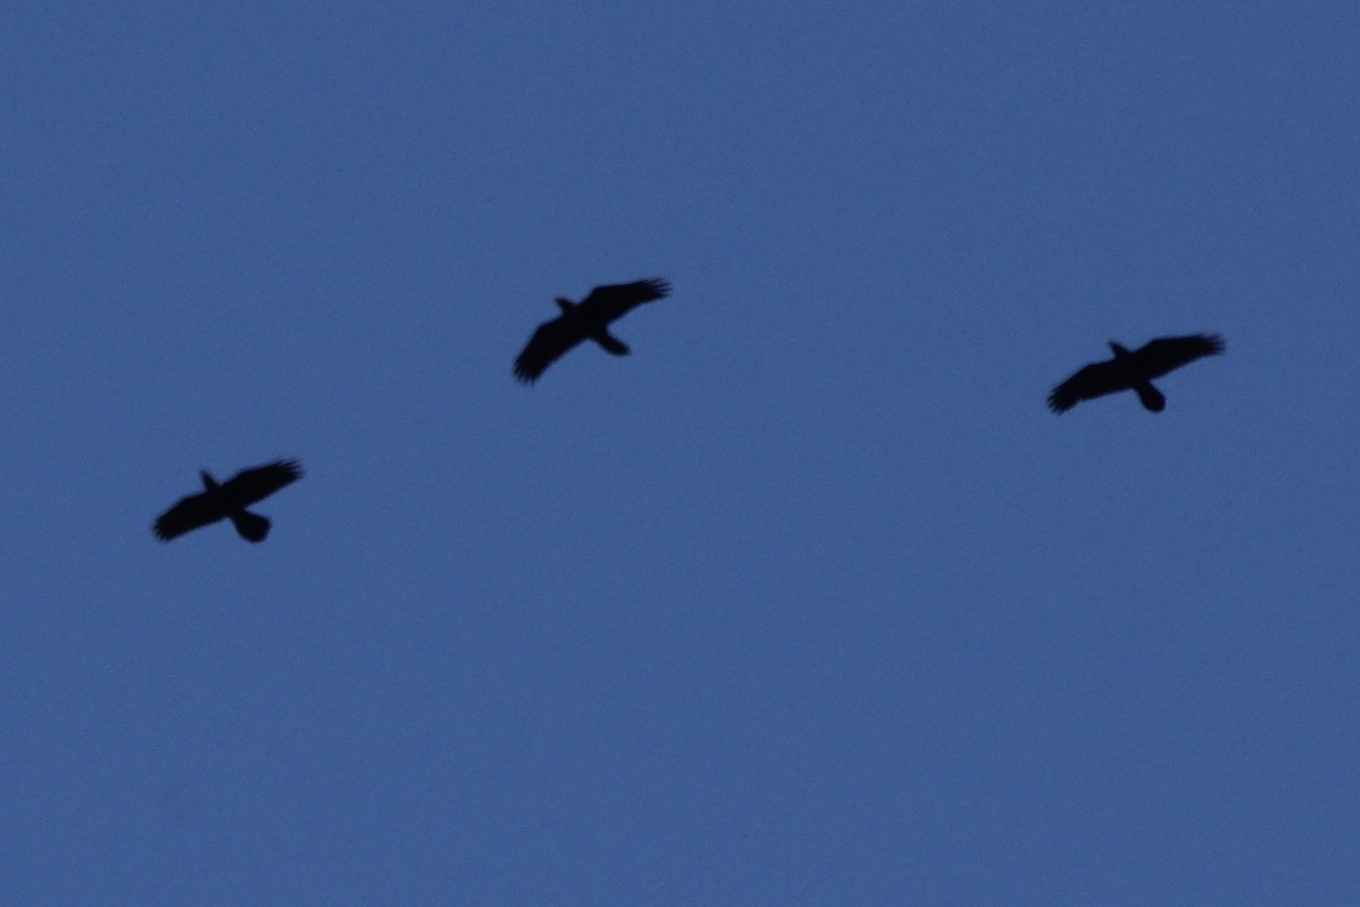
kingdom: Animalia
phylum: Chordata
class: Aves
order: Passeriformes
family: Corvidae
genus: Corvus
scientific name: Corvus corax
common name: Common raven
